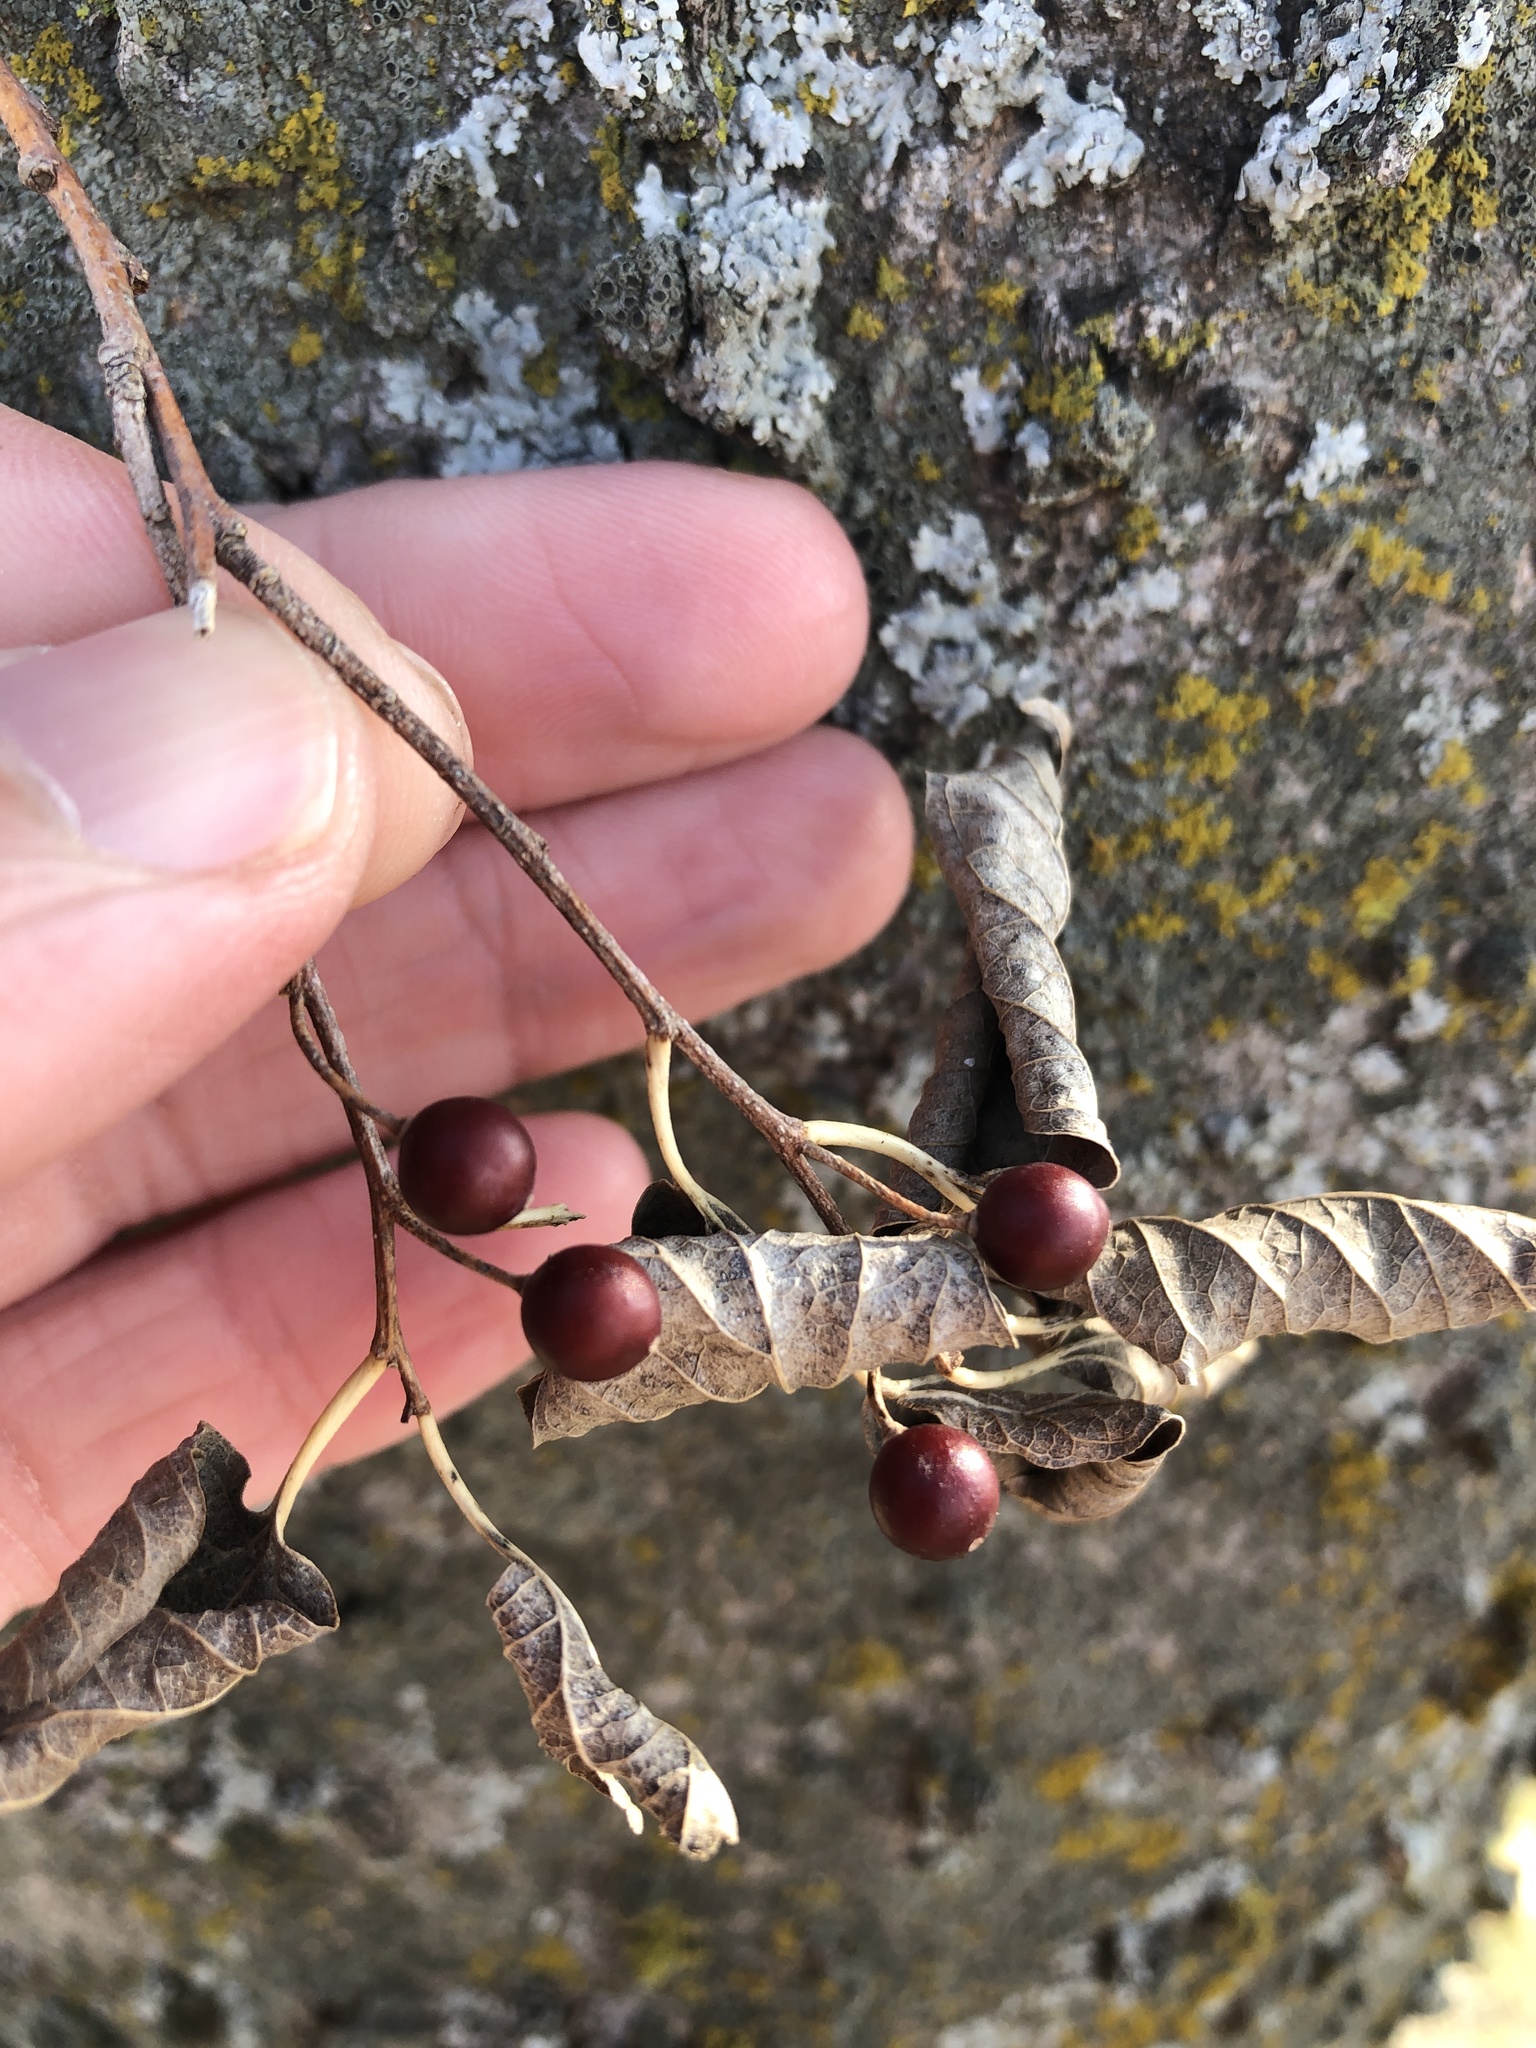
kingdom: Plantae
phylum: Tracheophyta
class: Magnoliopsida
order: Rosales
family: Cannabaceae
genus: Celtis
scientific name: Celtis laevigata
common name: Sugarberry
